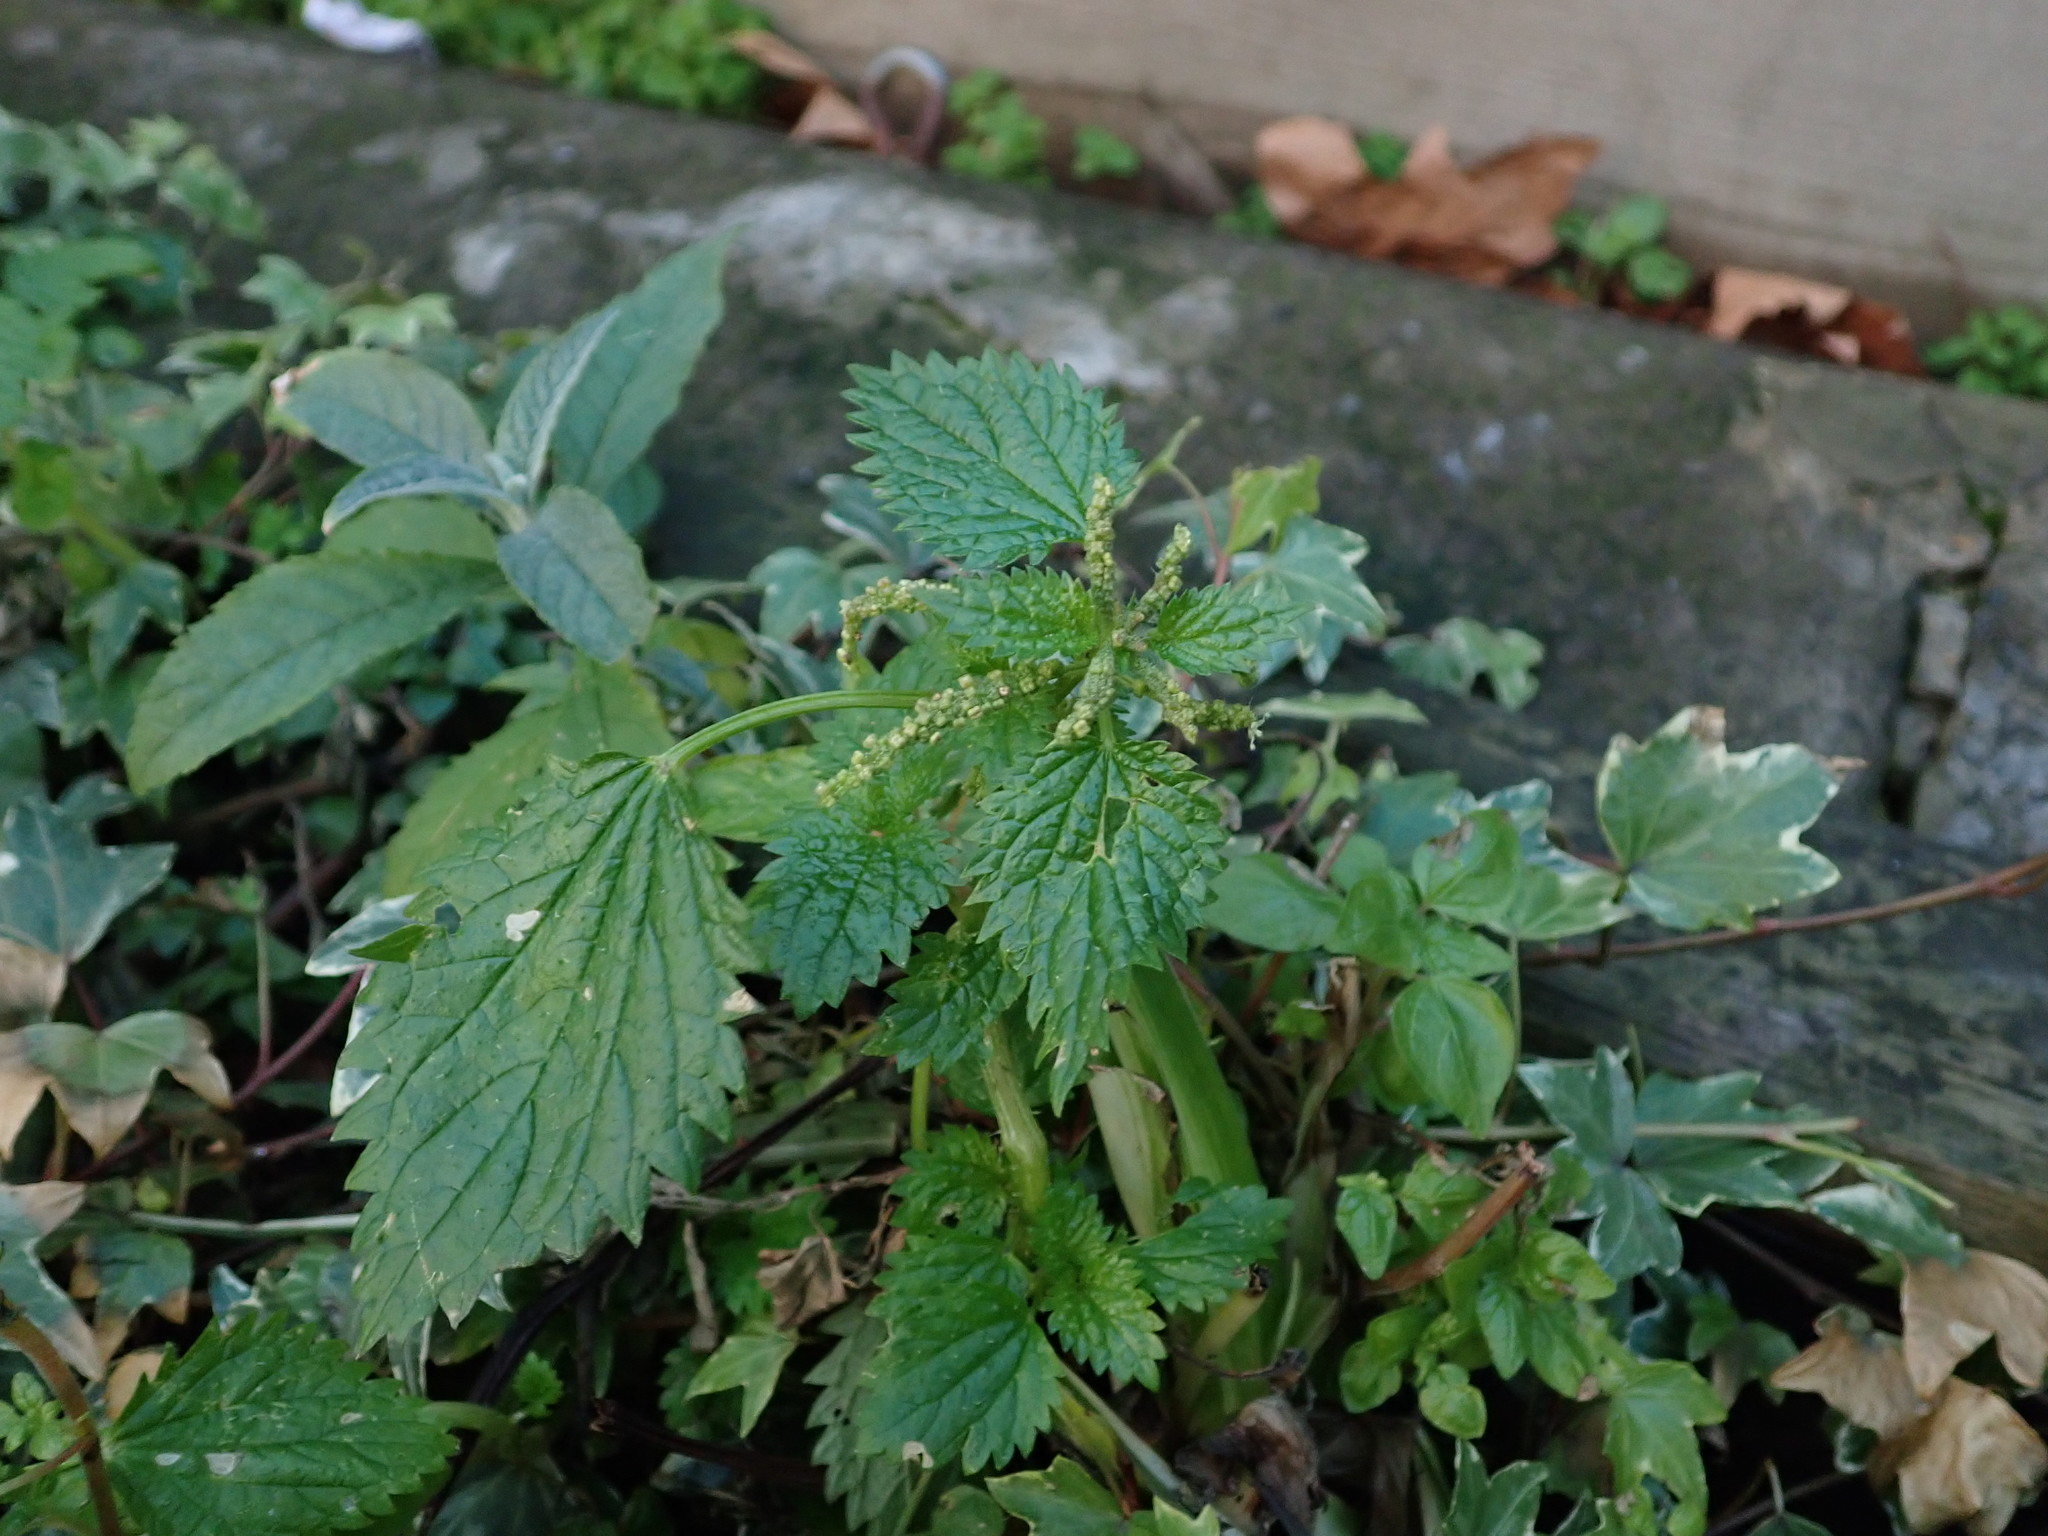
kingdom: Plantae
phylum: Tracheophyta
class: Magnoliopsida
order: Rosales
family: Urticaceae
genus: Urtica
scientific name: Urtica membranacea
